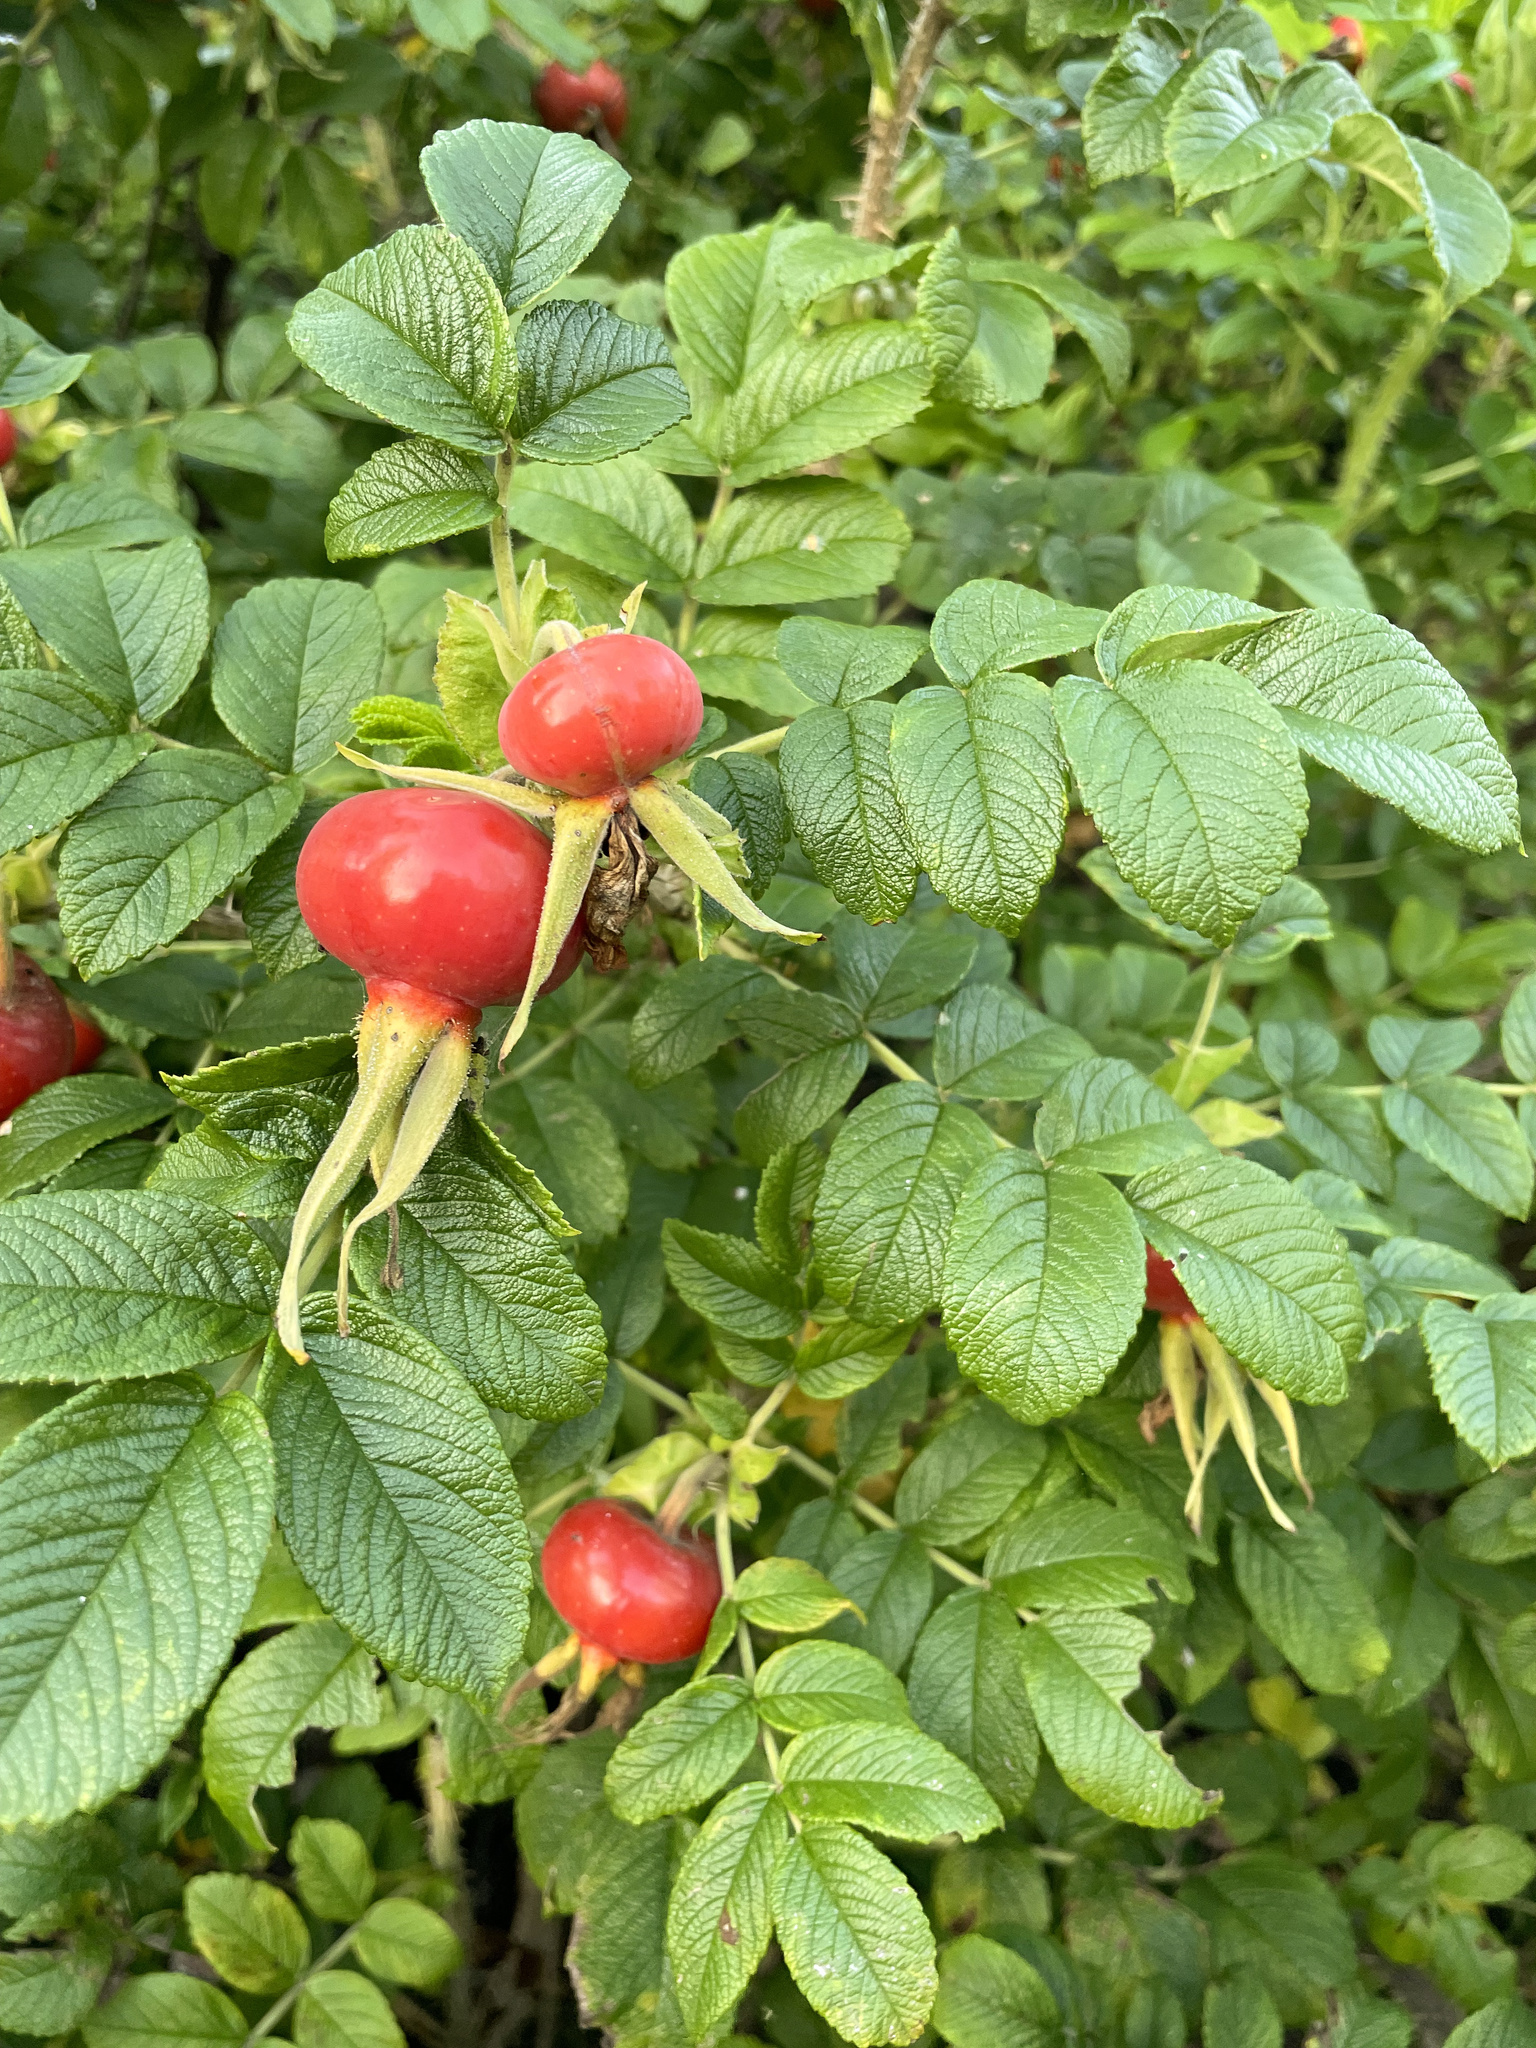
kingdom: Plantae
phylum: Tracheophyta
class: Magnoliopsida
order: Rosales
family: Rosaceae
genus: Rosa
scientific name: Rosa rugosa
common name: Japanese rose
